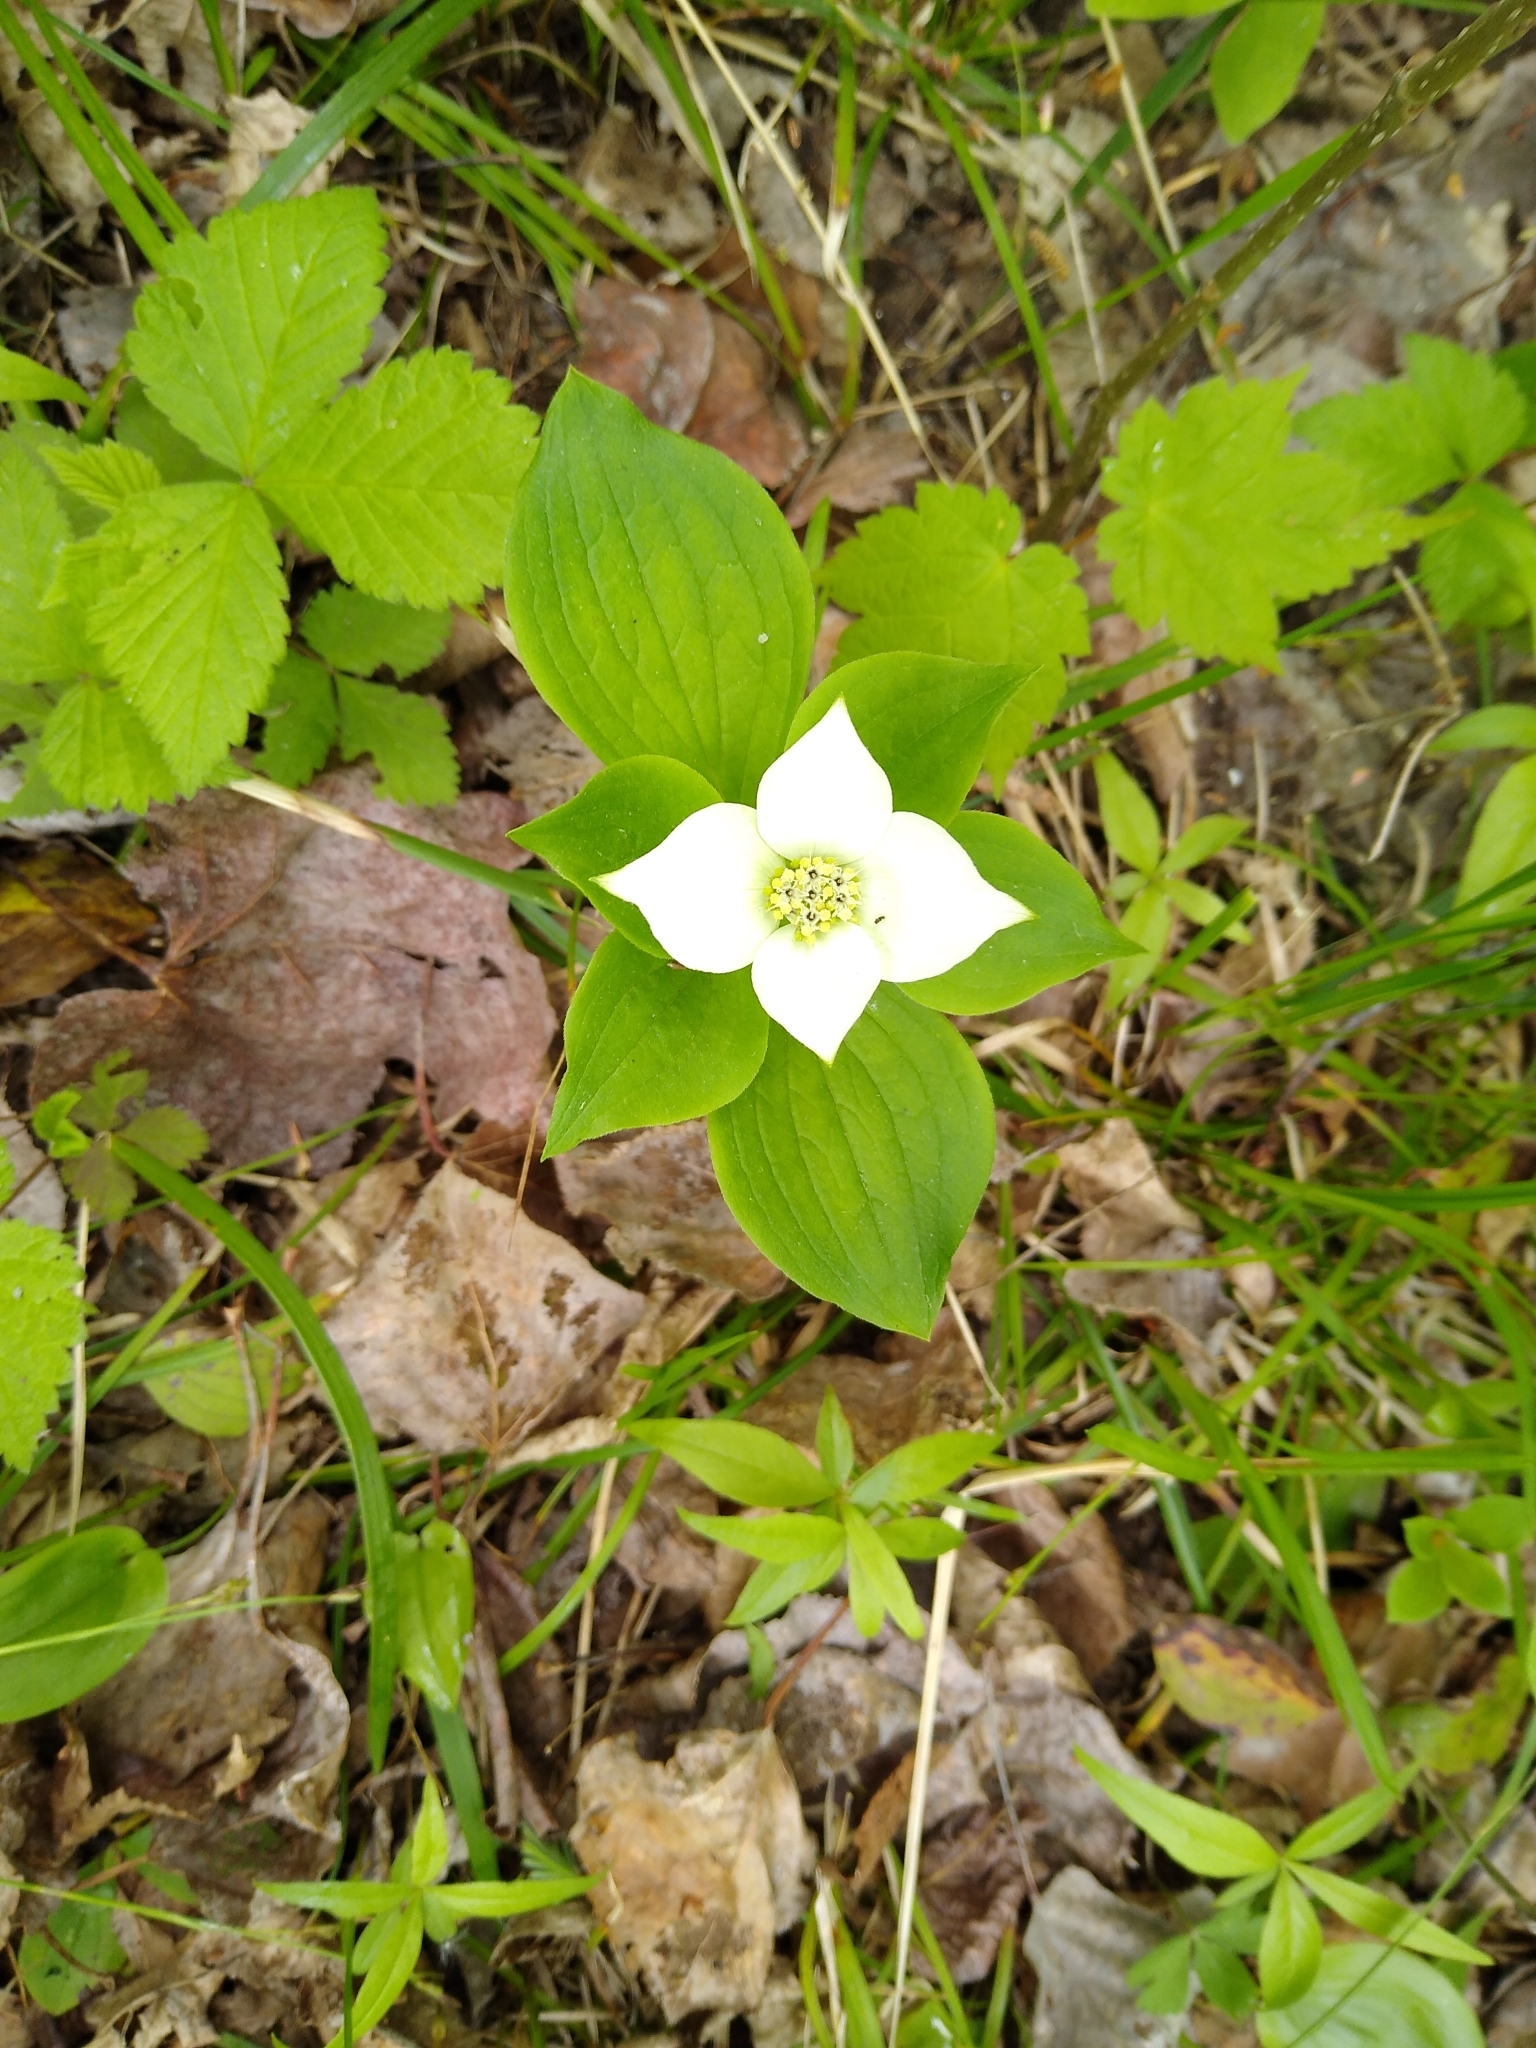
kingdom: Plantae
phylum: Tracheophyta
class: Magnoliopsida
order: Cornales
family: Cornaceae
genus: Cornus
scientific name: Cornus canadensis
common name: Creeping dogwood
